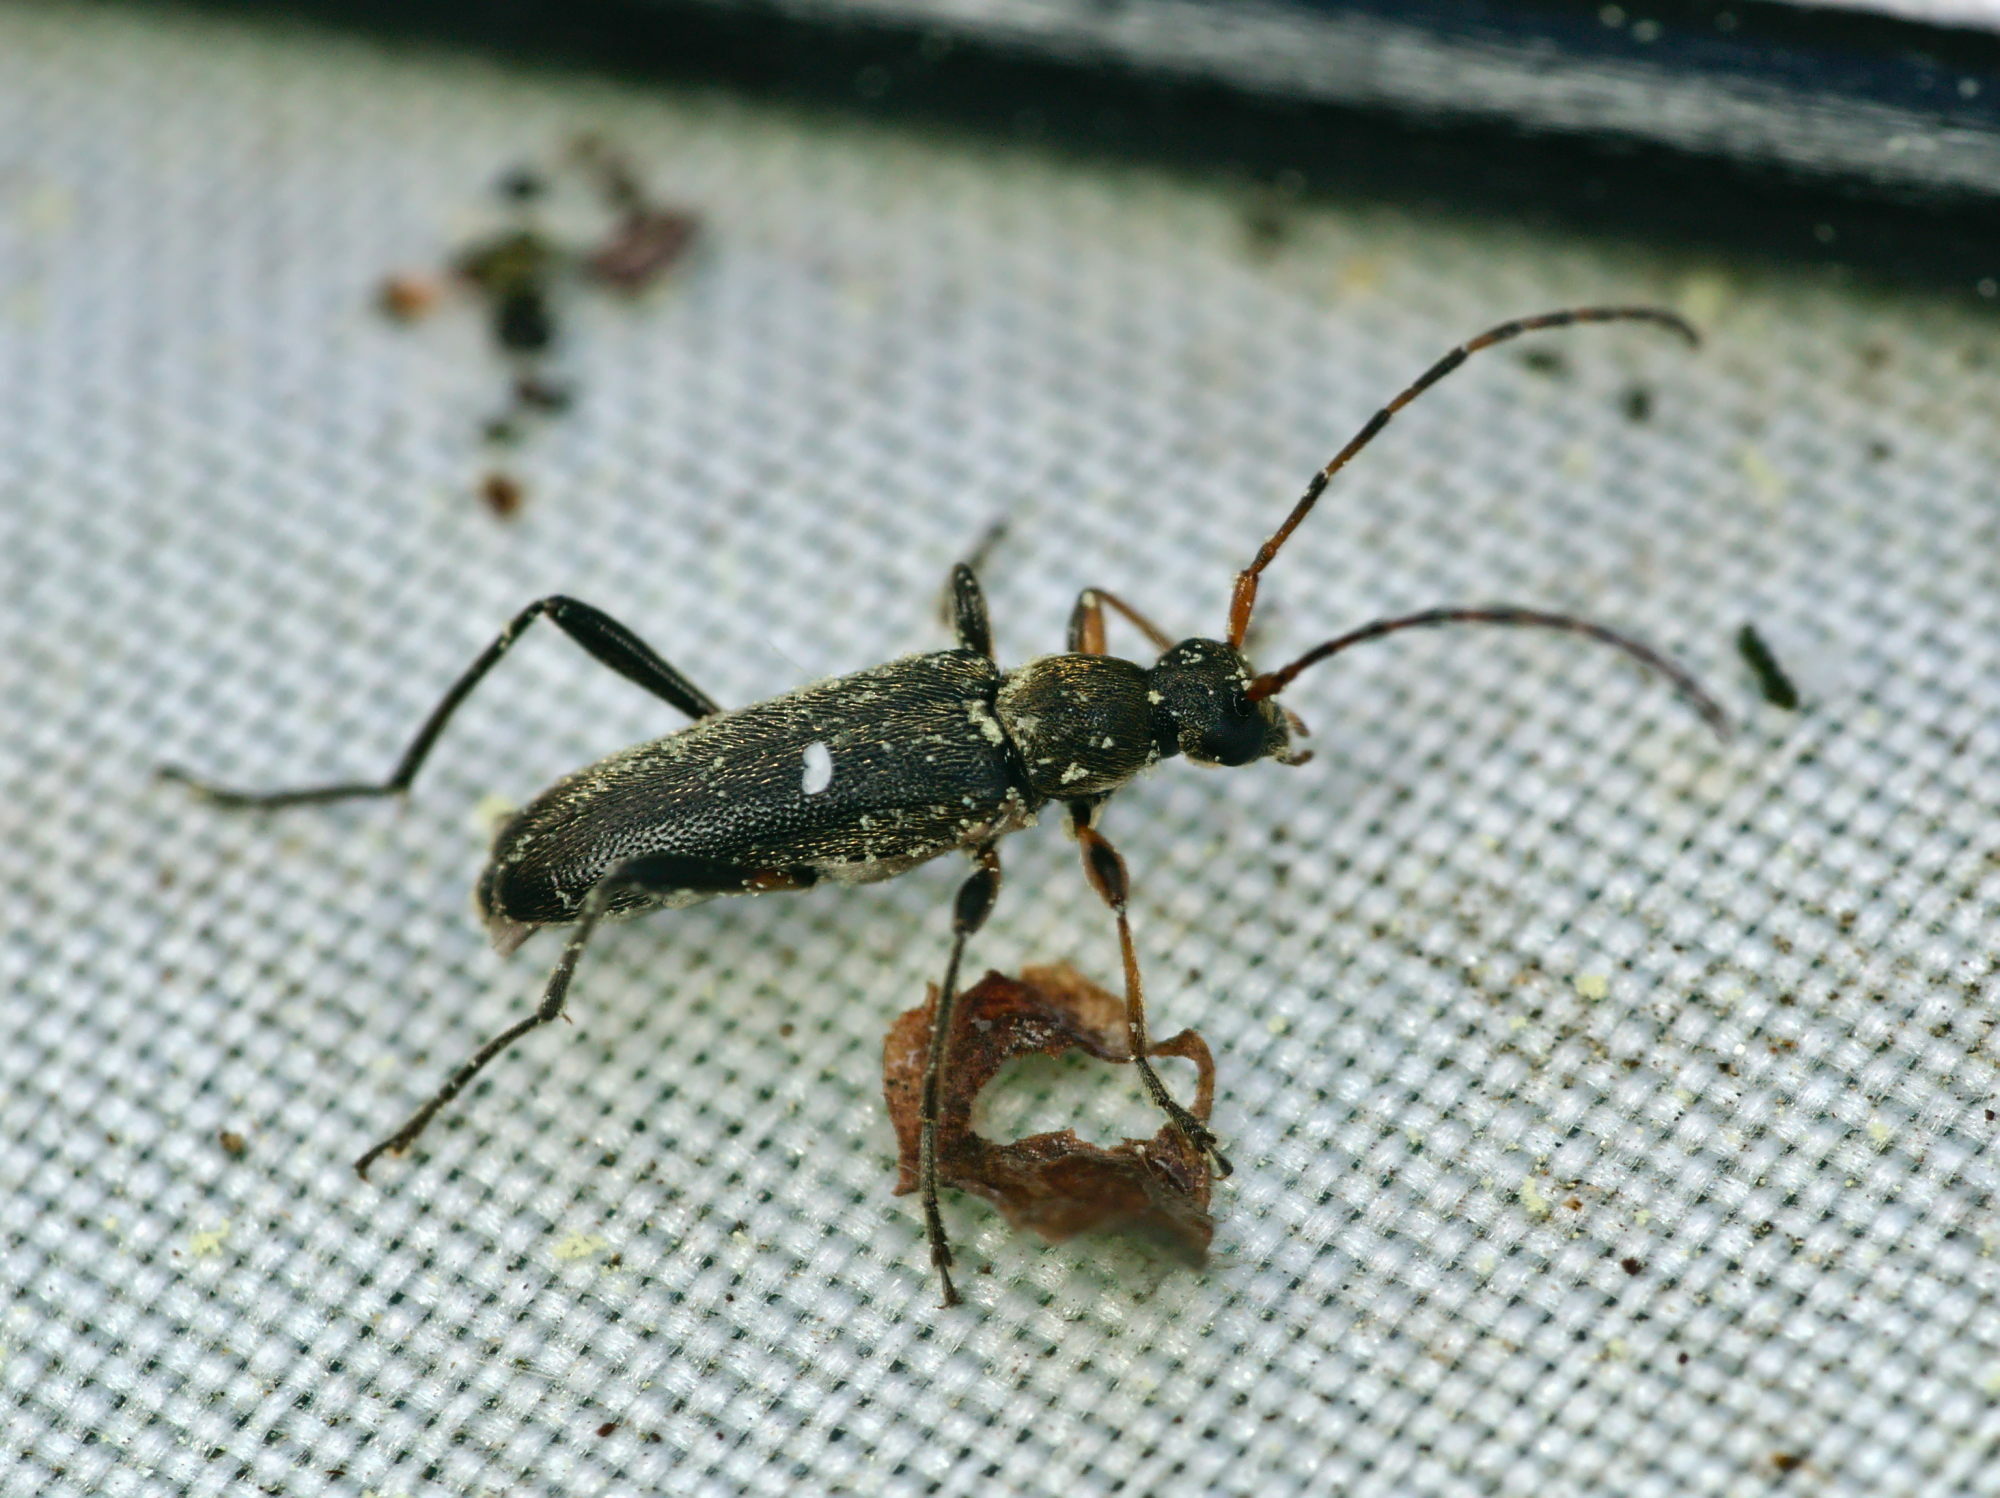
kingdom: Animalia
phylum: Arthropoda
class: Insecta
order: Coleoptera
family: Cerambycidae
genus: Grammoptera
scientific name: Grammoptera ruficornis
